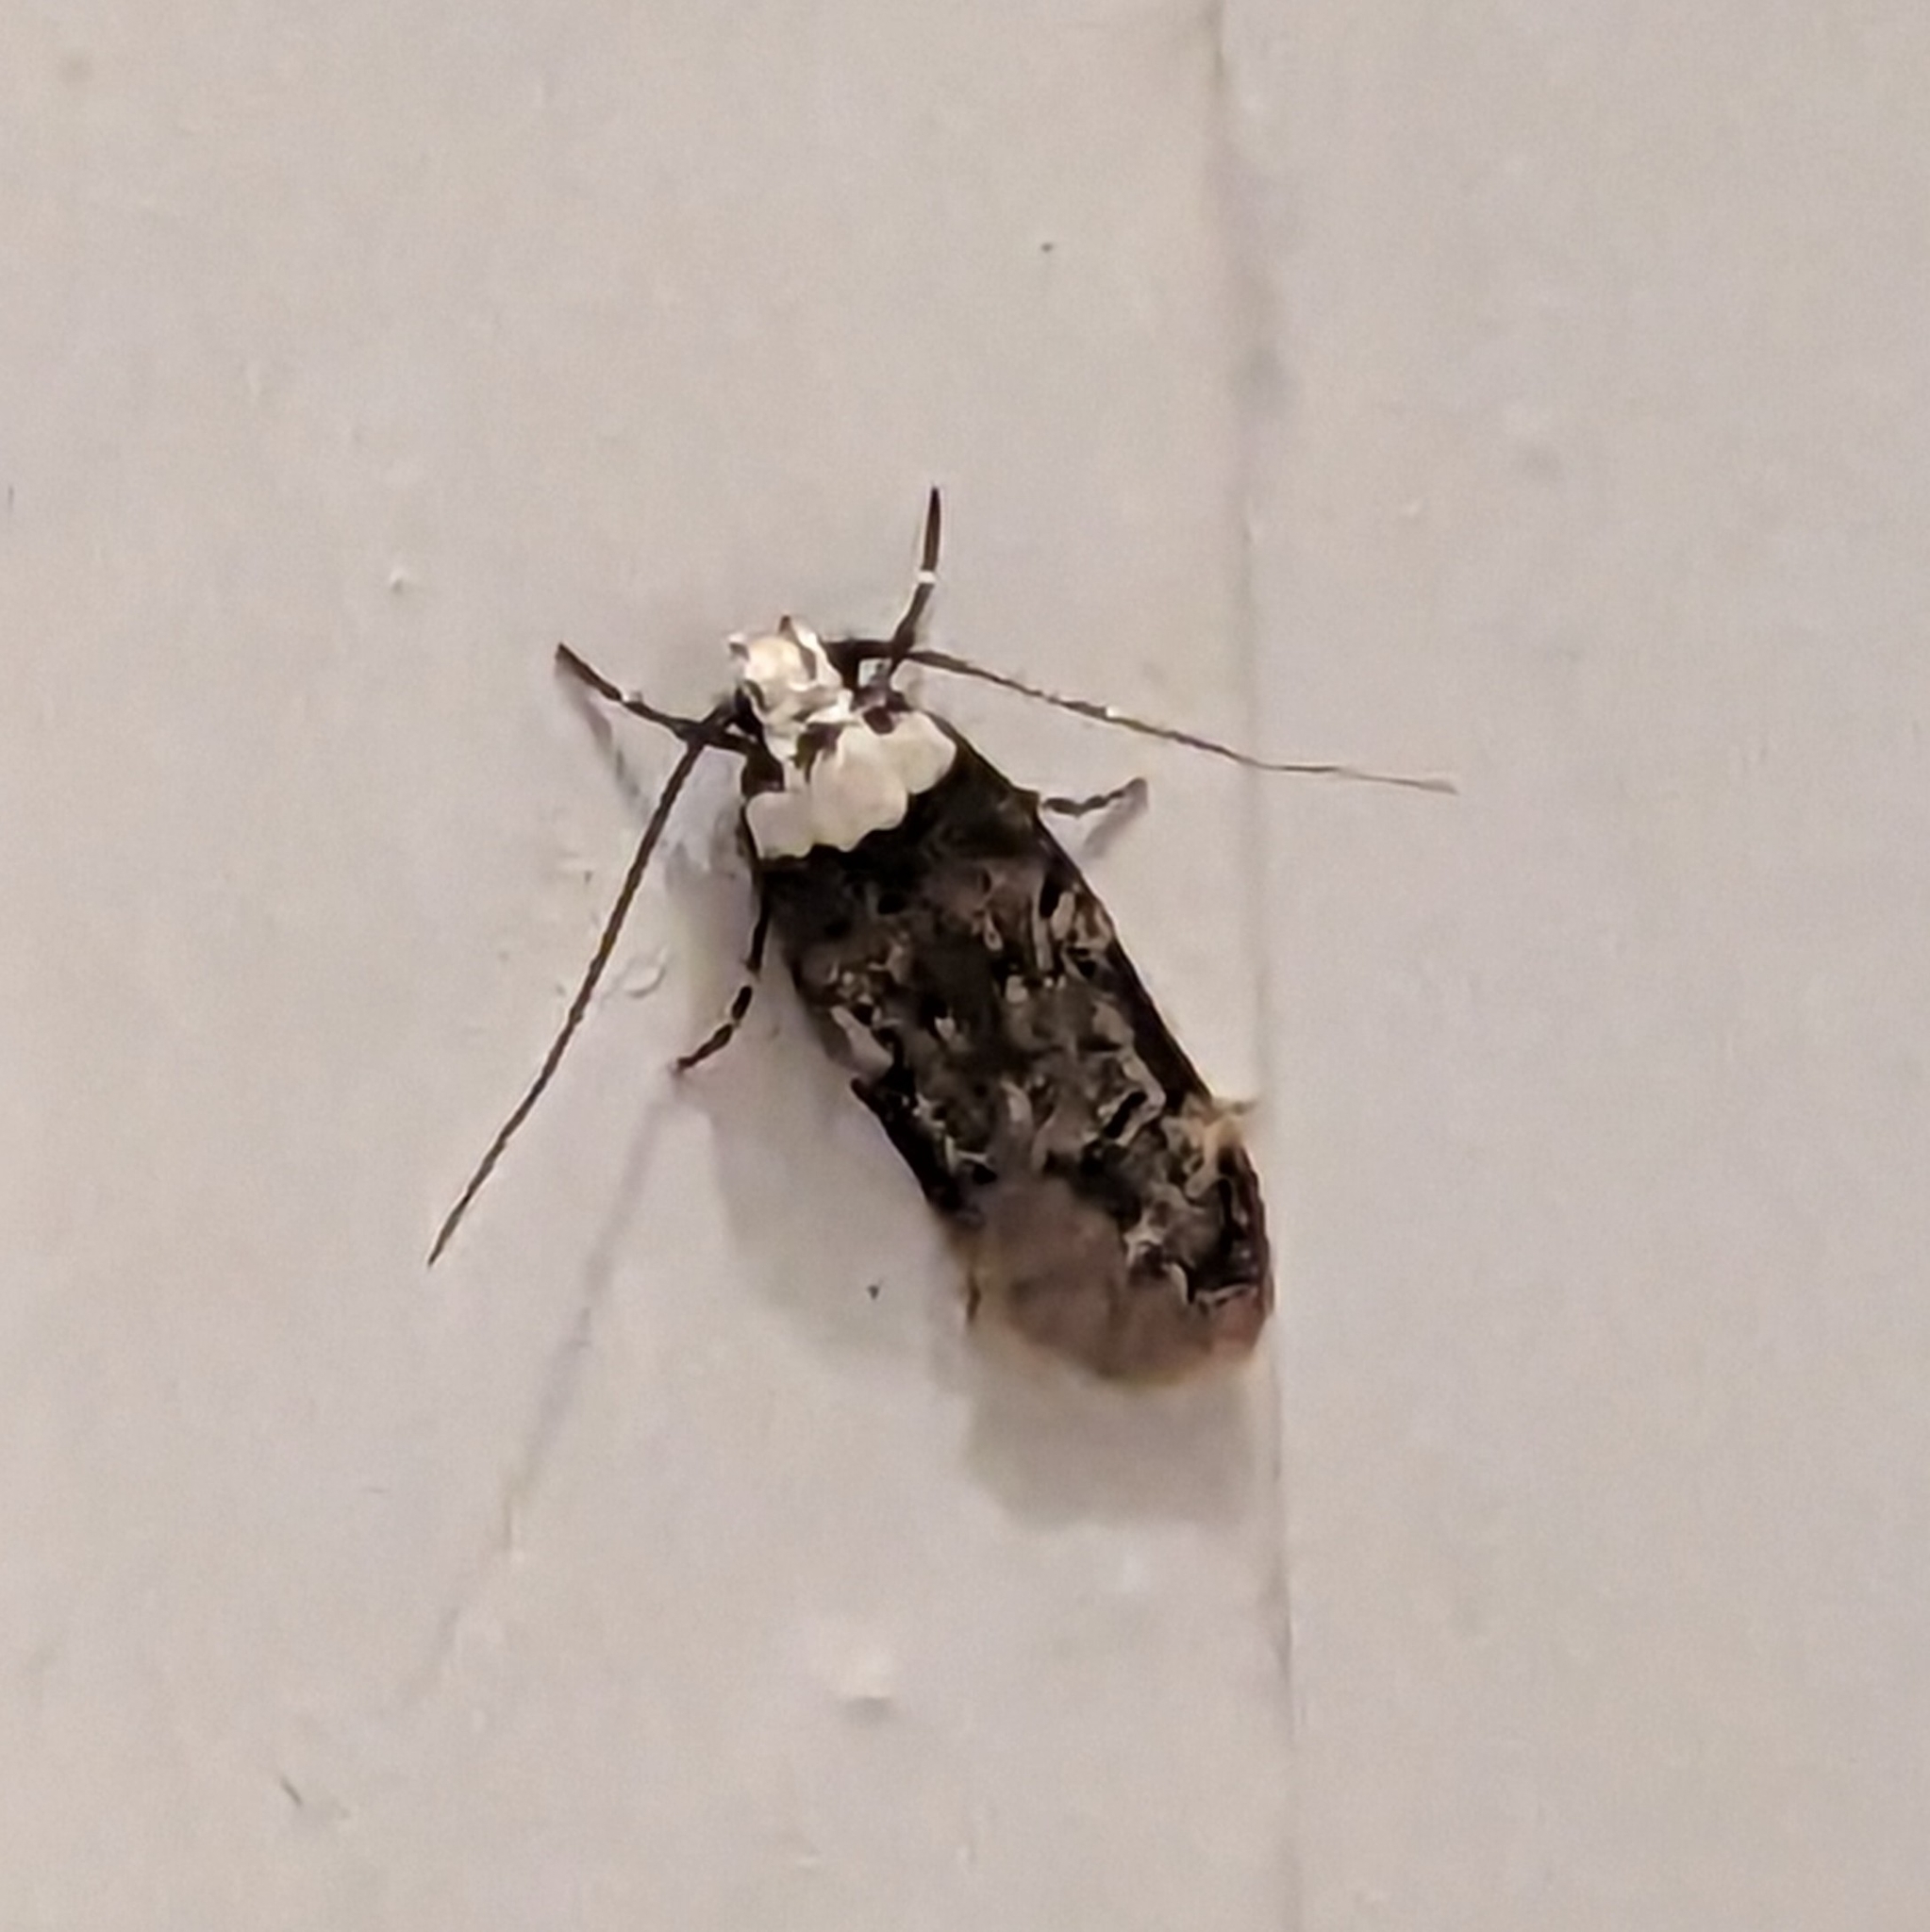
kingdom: Animalia
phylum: Arthropoda
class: Insecta
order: Lepidoptera
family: Oecophoridae
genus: Endrosis
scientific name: Endrosis sarcitrella
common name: White-shouldered house moth
